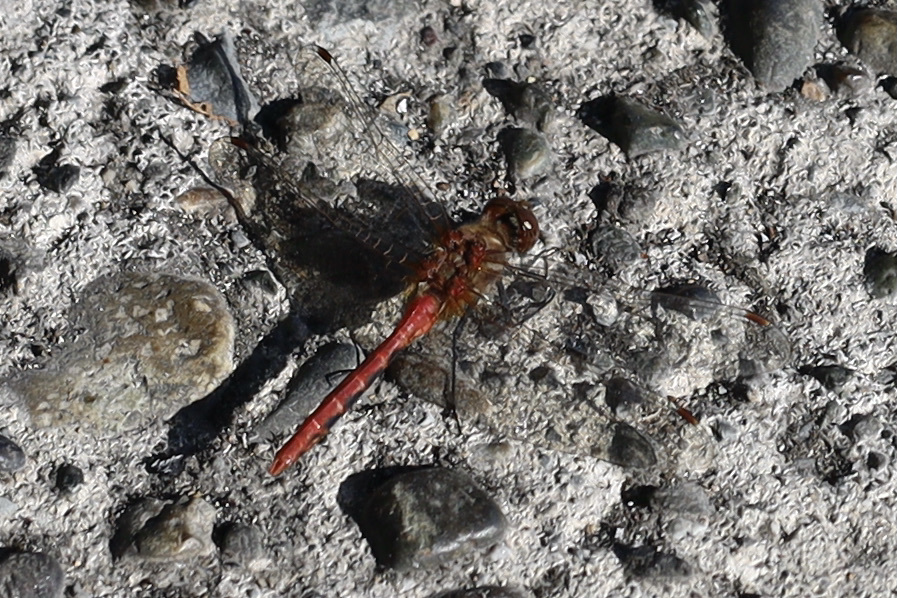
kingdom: Animalia
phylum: Arthropoda
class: Insecta
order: Odonata
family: Libellulidae
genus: Sympetrum
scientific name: Sympetrum pallipes
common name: Striped meadowhawk
